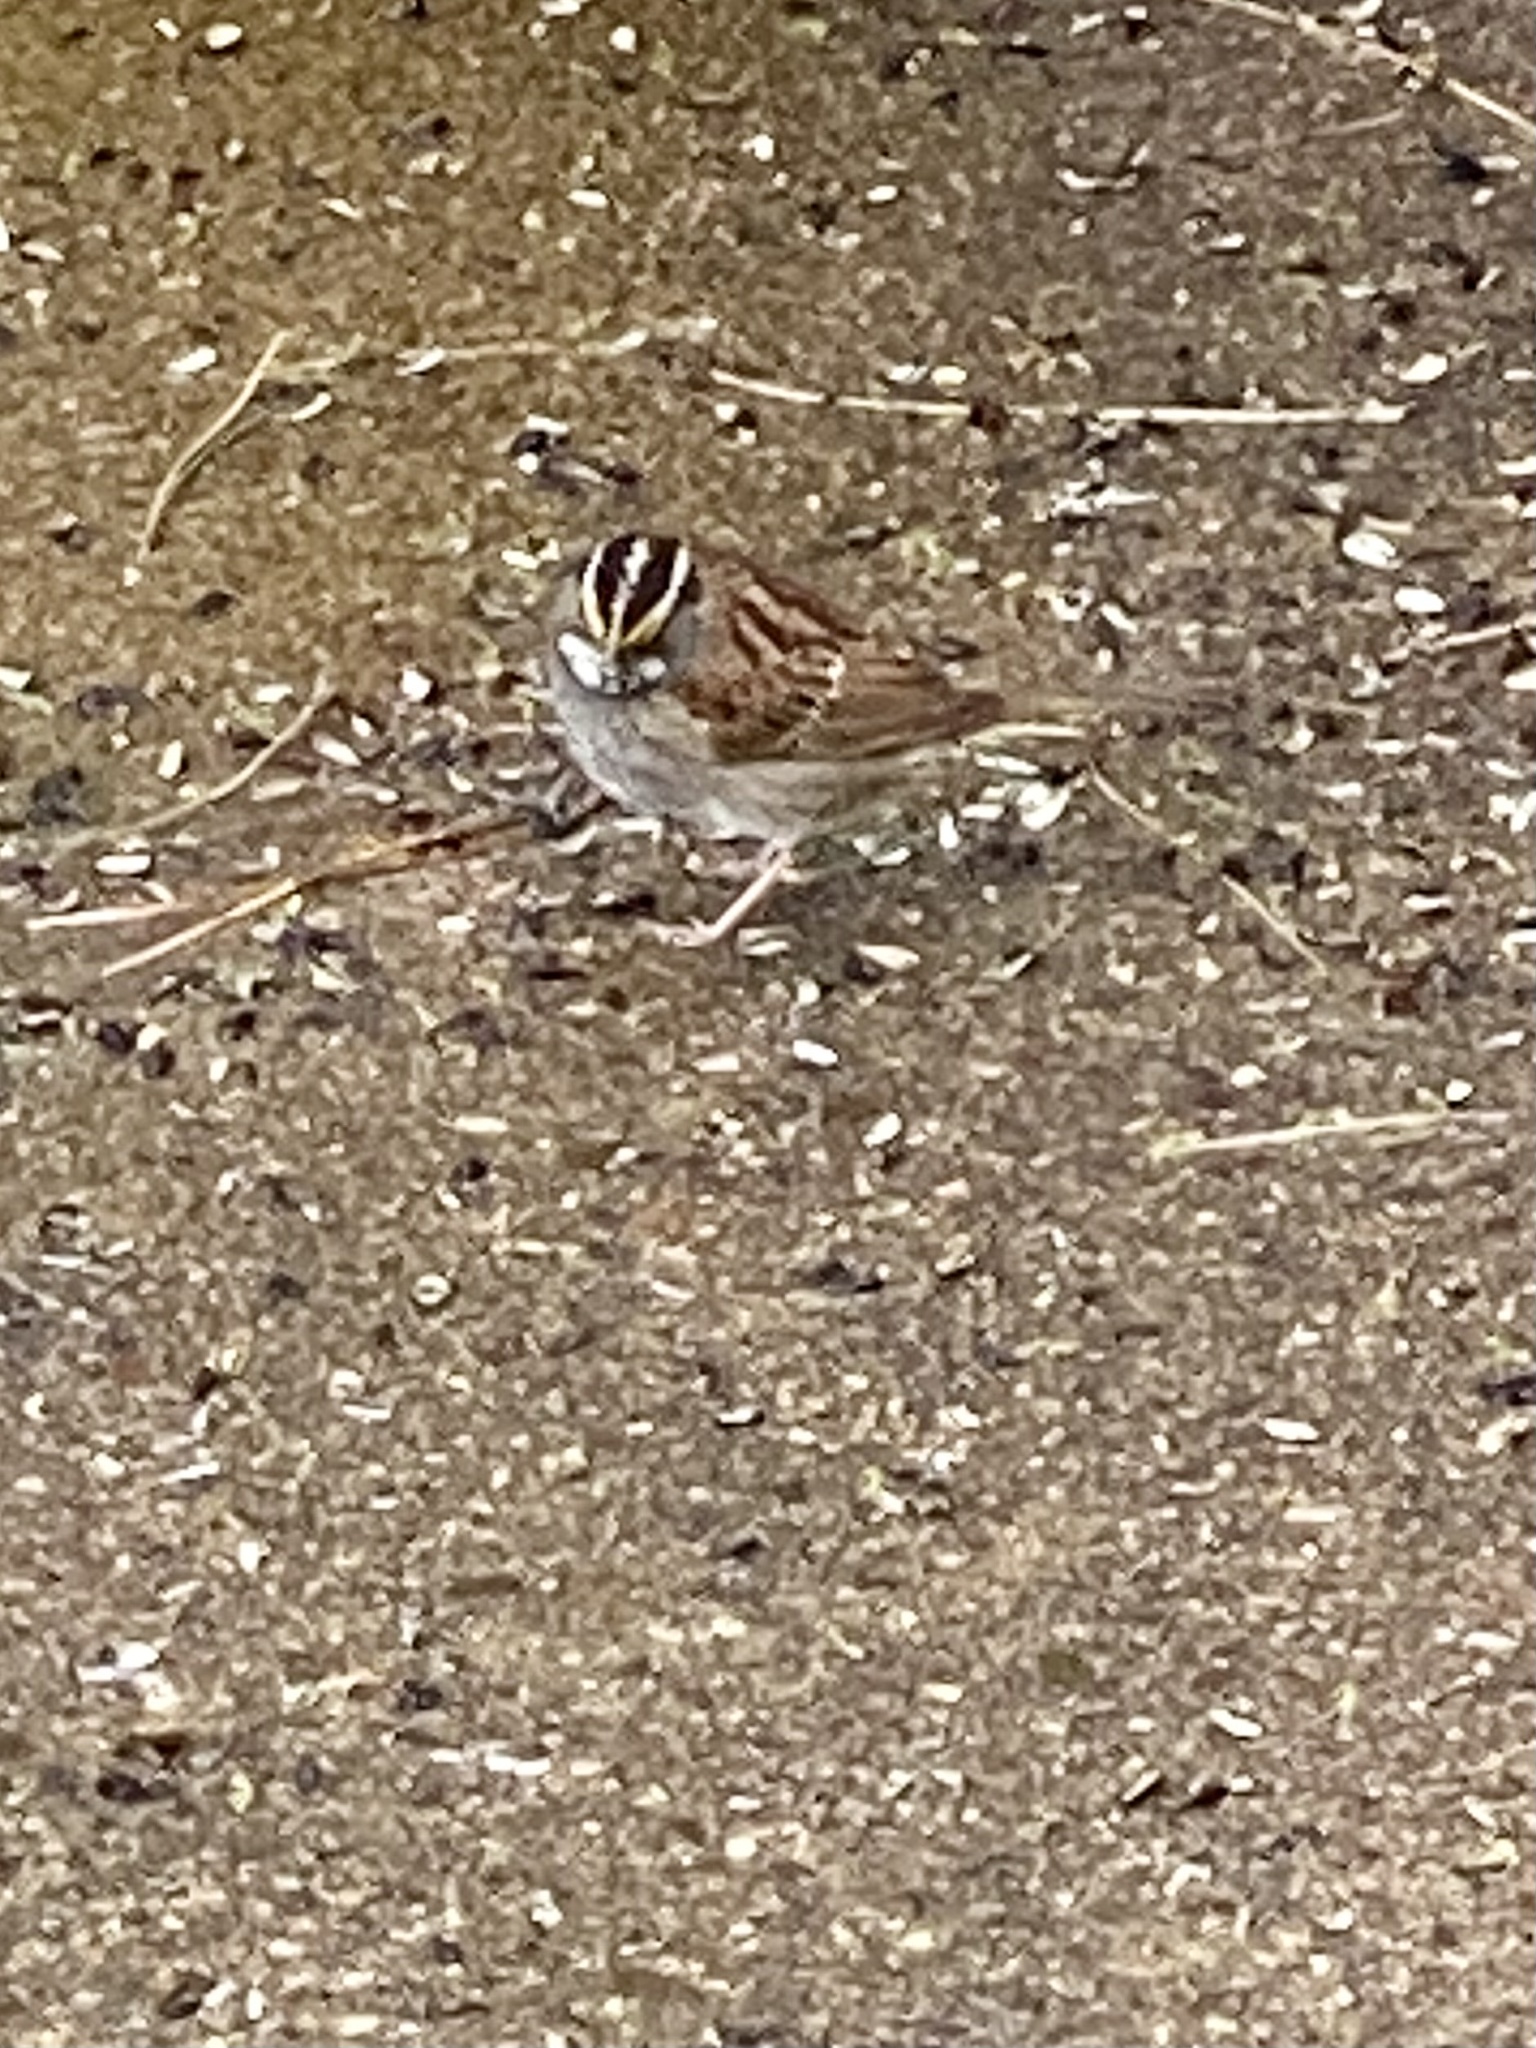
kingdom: Animalia
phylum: Chordata
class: Aves
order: Passeriformes
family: Passerellidae
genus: Zonotrichia
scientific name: Zonotrichia albicollis
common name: White-throated sparrow
